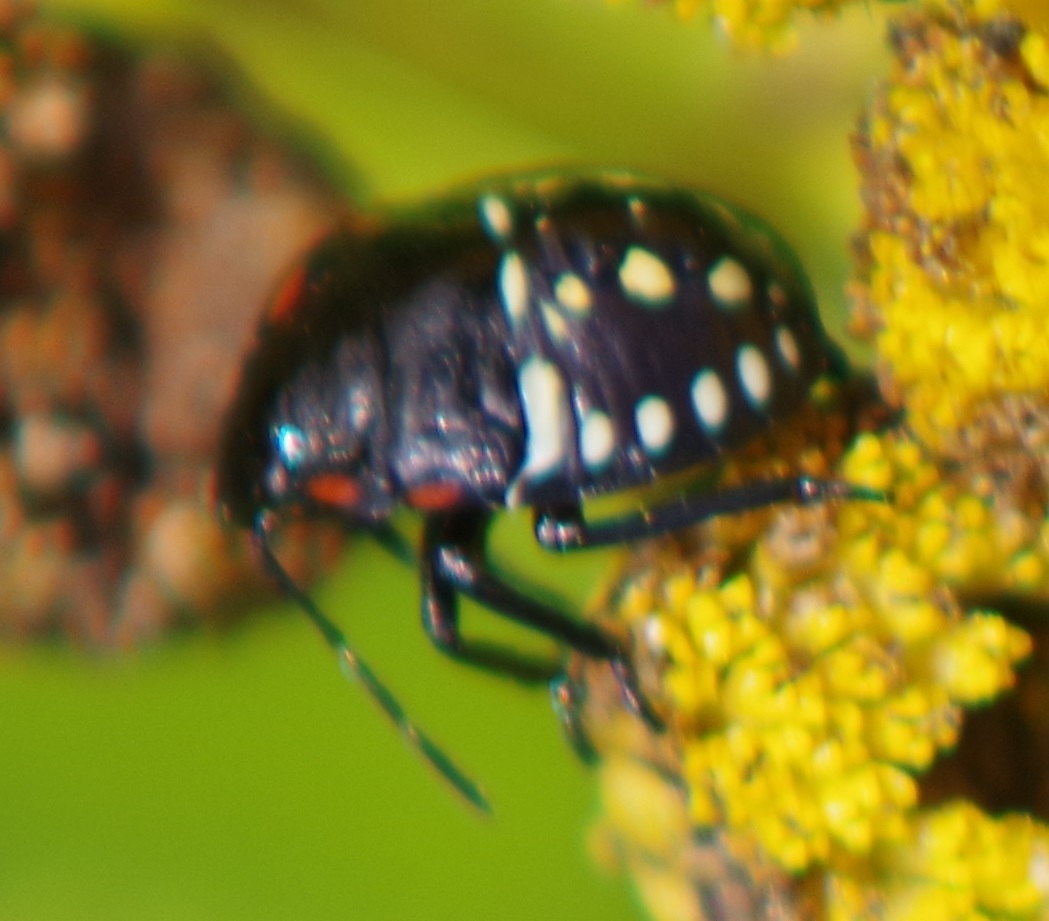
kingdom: Animalia
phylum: Arthropoda
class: Insecta
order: Hemiptera
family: Pentatomidae
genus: Nezara
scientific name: Nezara viridula
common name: Southern green stink bug
